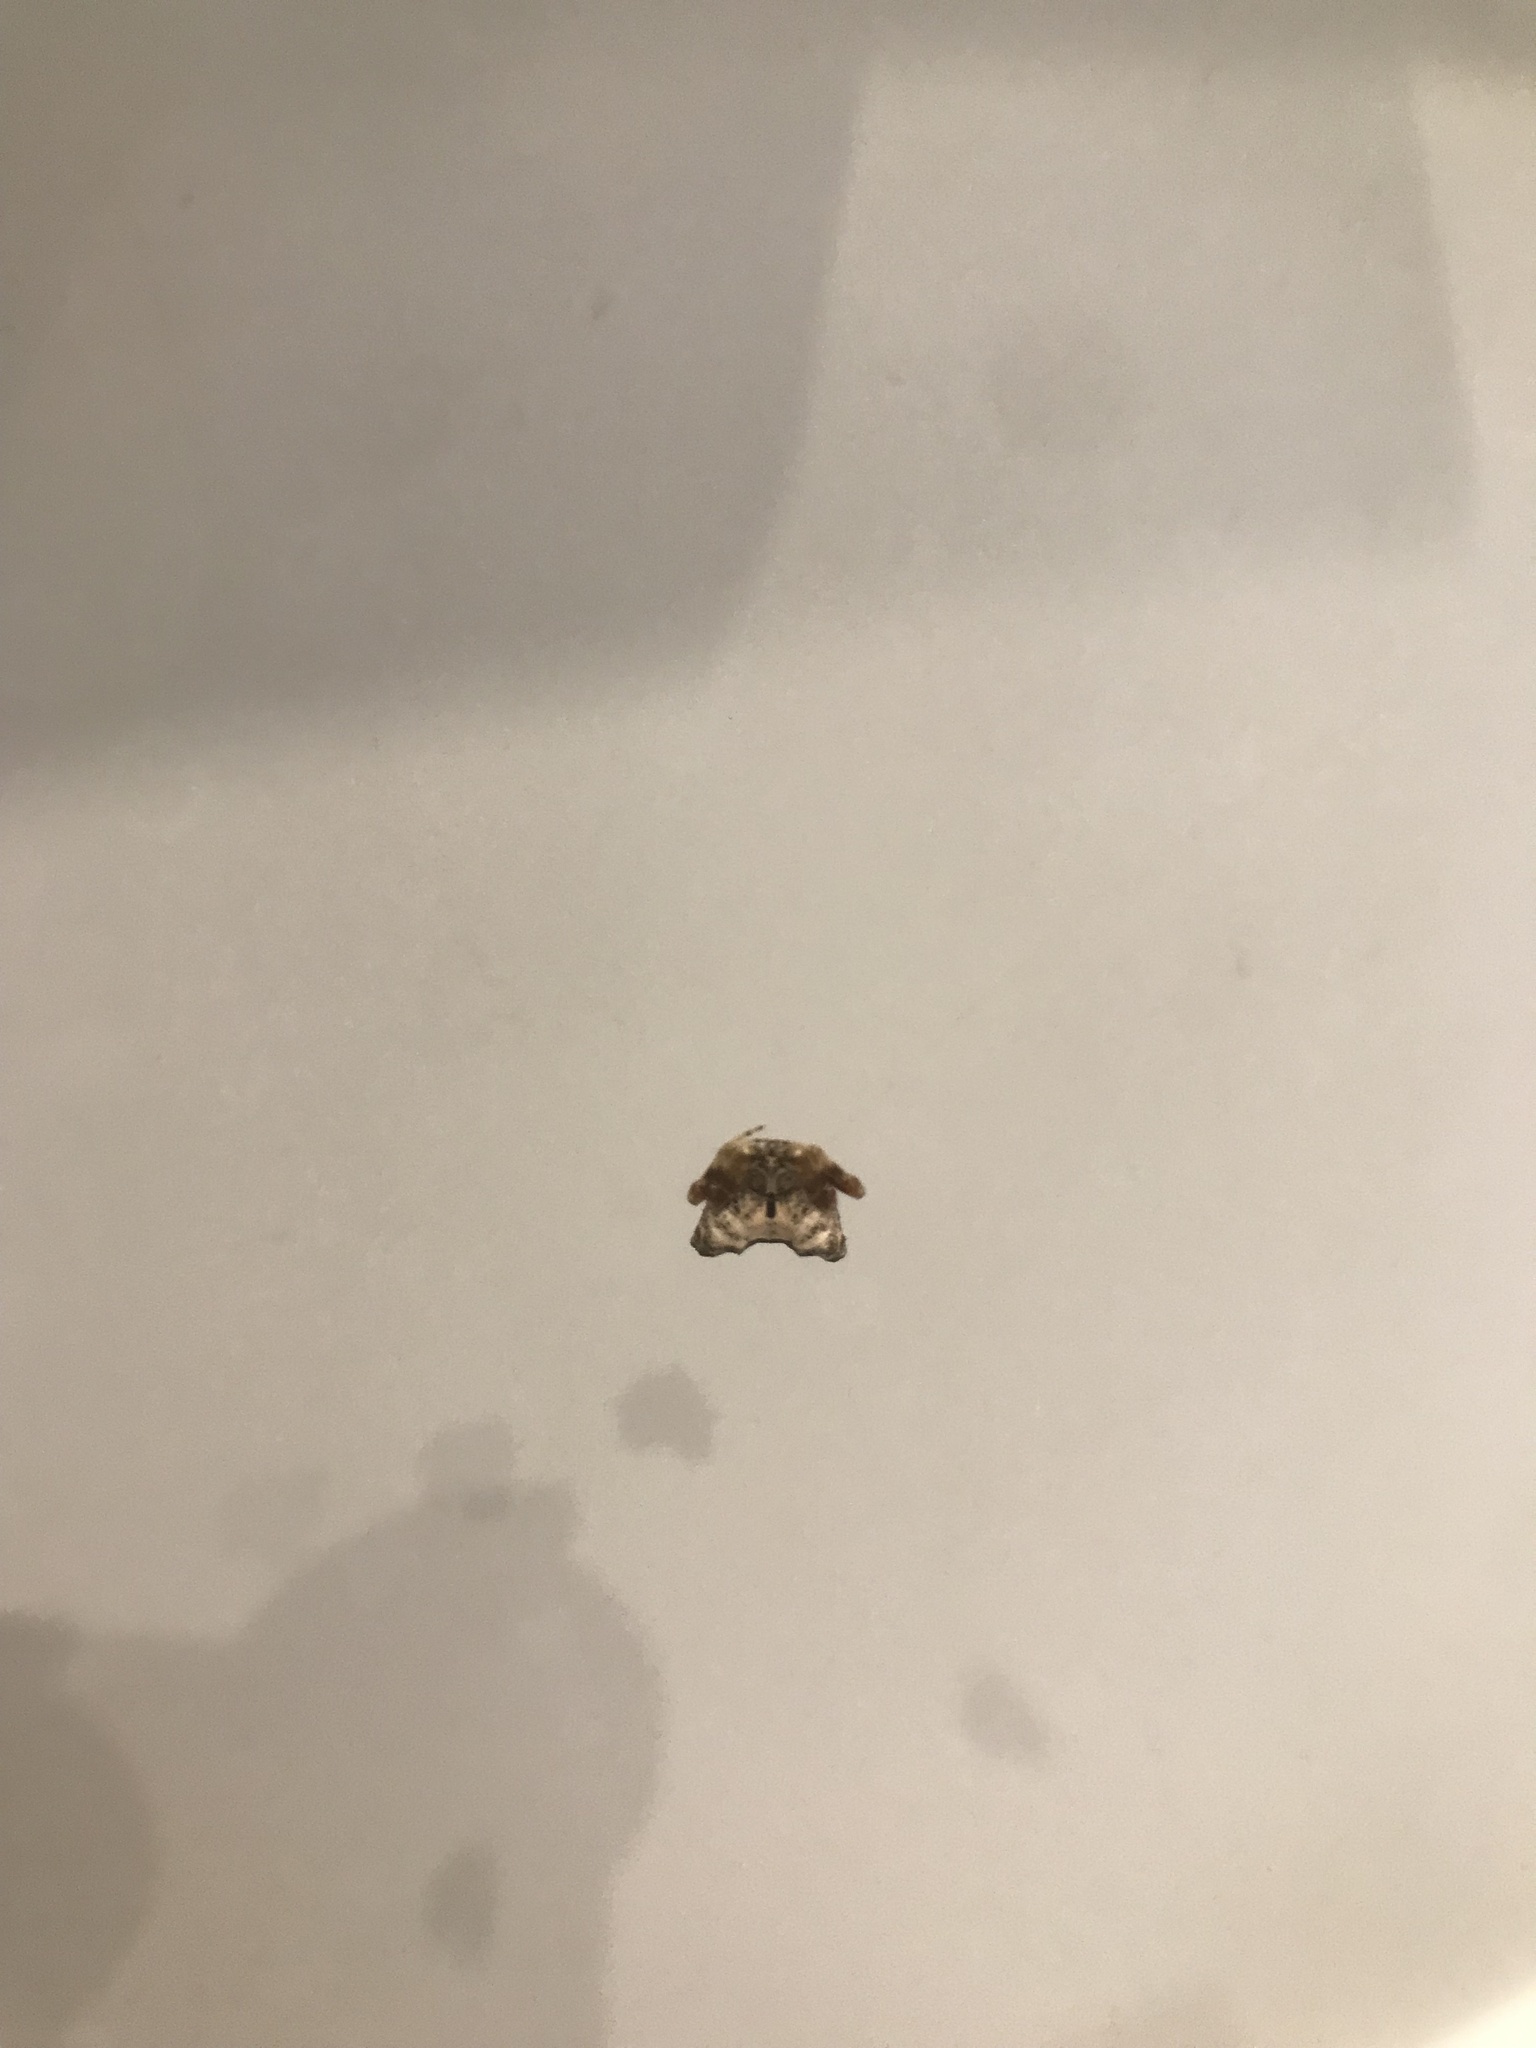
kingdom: Animalia
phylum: Arthropoda
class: Arachnida
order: Araneae
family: Araneidae
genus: Celaenia
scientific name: Celaenia olivacea
